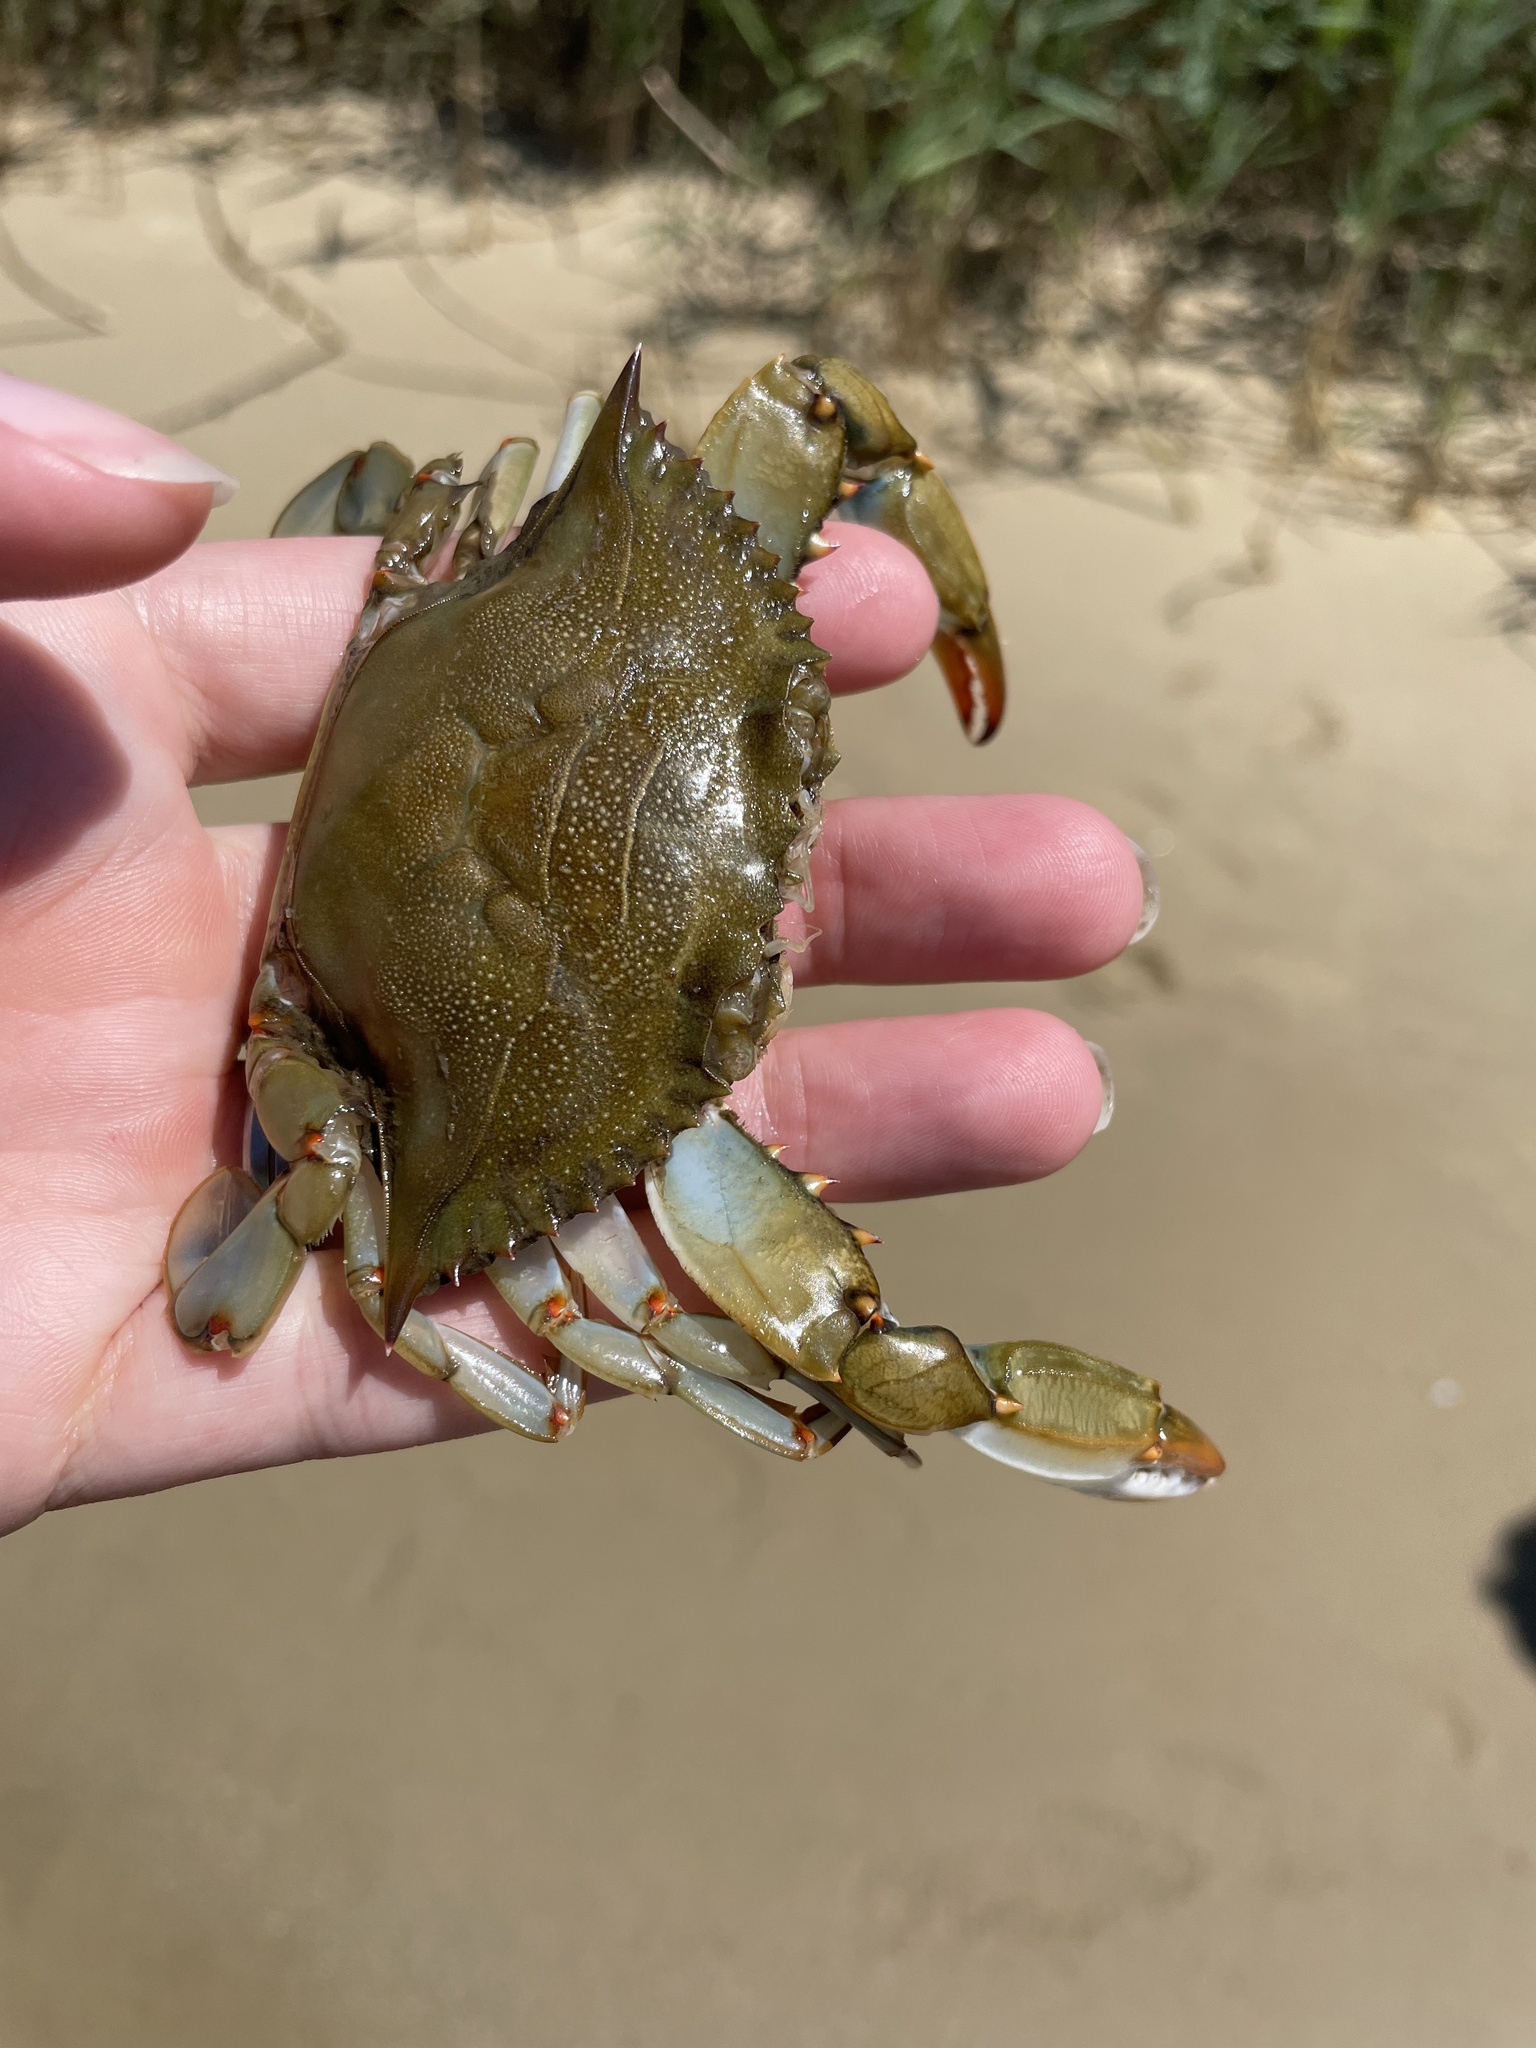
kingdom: Animalia
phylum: Arthropoda
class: Malacostraca
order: Decapoda
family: Portunidae
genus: Callinectes
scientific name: Callinectes sapidus
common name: Blue crab
